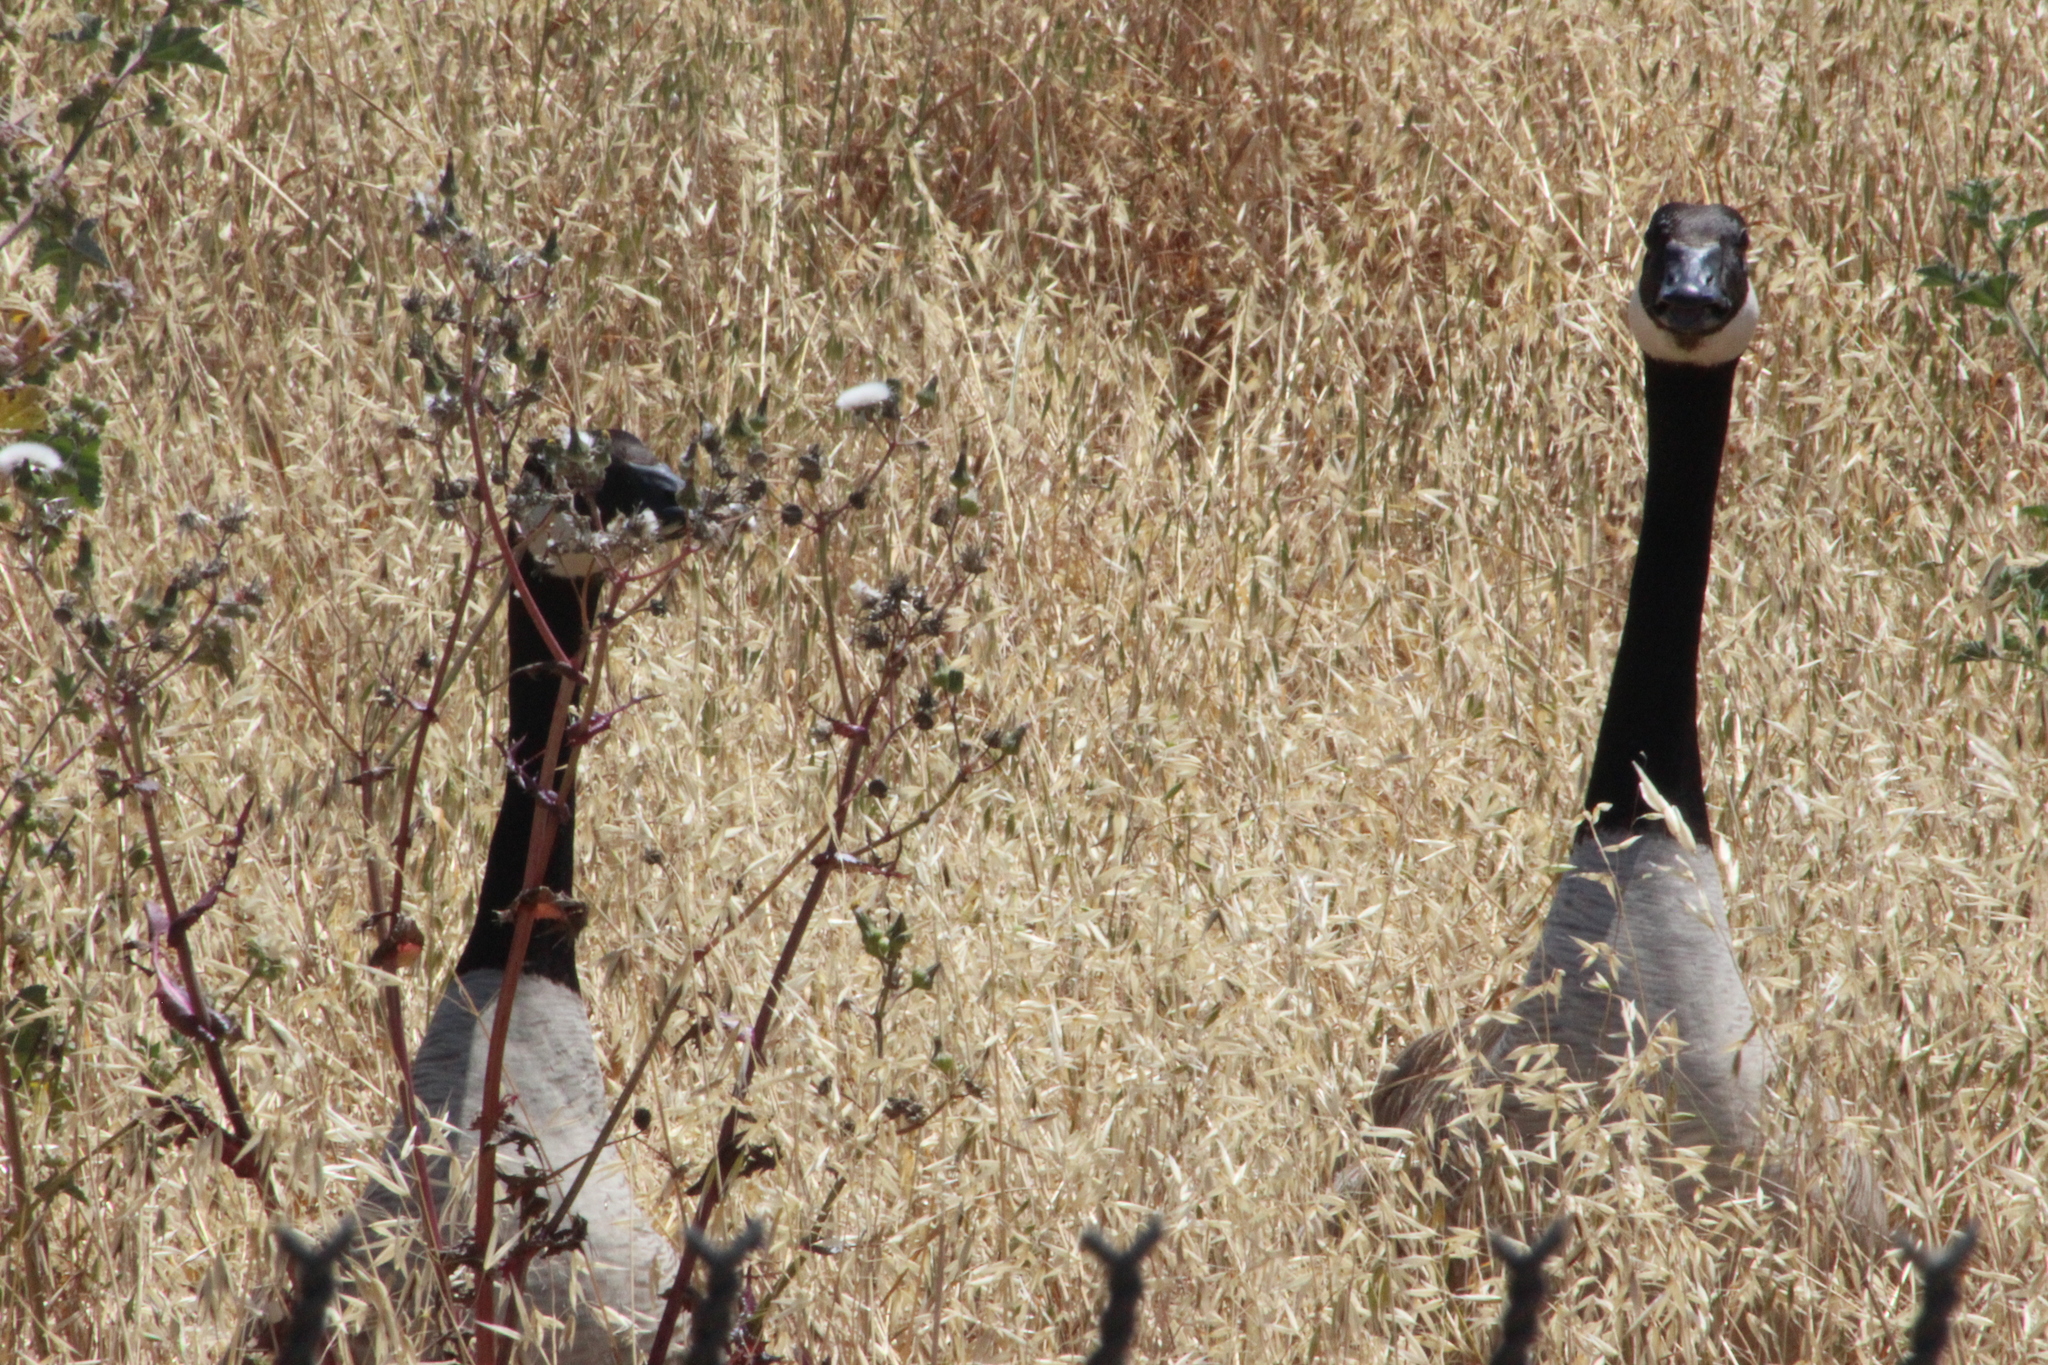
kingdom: Animalia
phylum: Chordata
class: Aves
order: Anseriformes
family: Anatidae
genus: Branta
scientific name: Branta canadensis
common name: Canada goose
